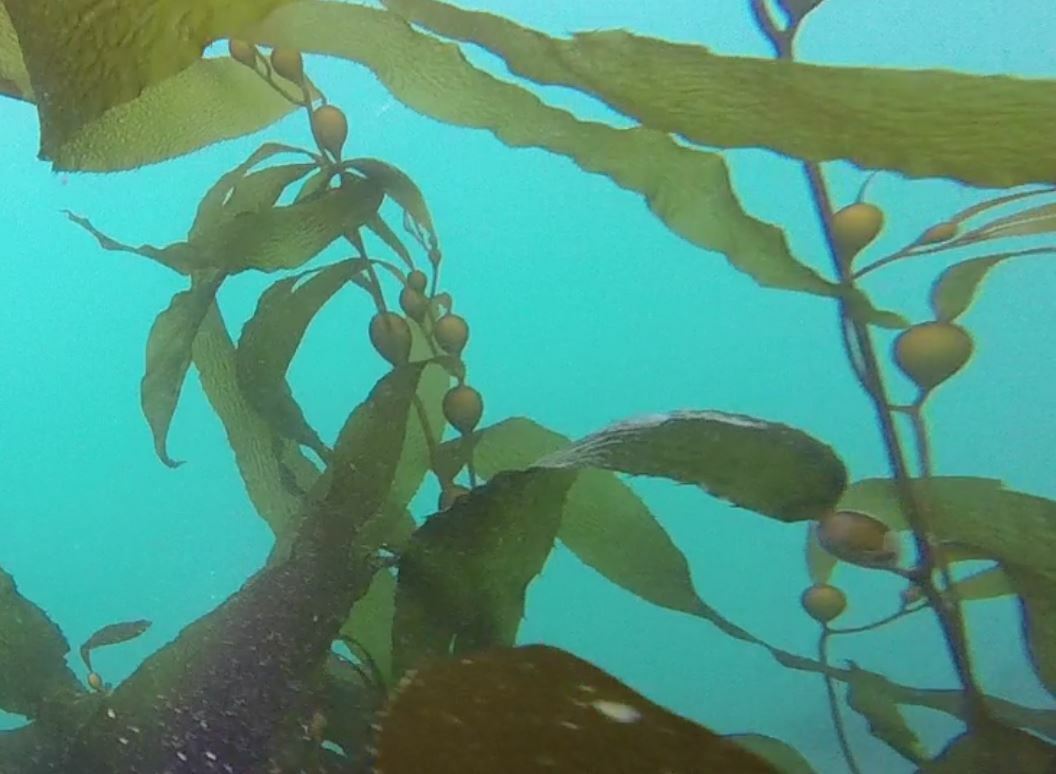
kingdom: Chromista
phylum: Ochrophyta
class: Phaeophyceae
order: Laminariales
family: Laminariaceae
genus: Macrocystis
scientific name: Macrocystis pyrifera
